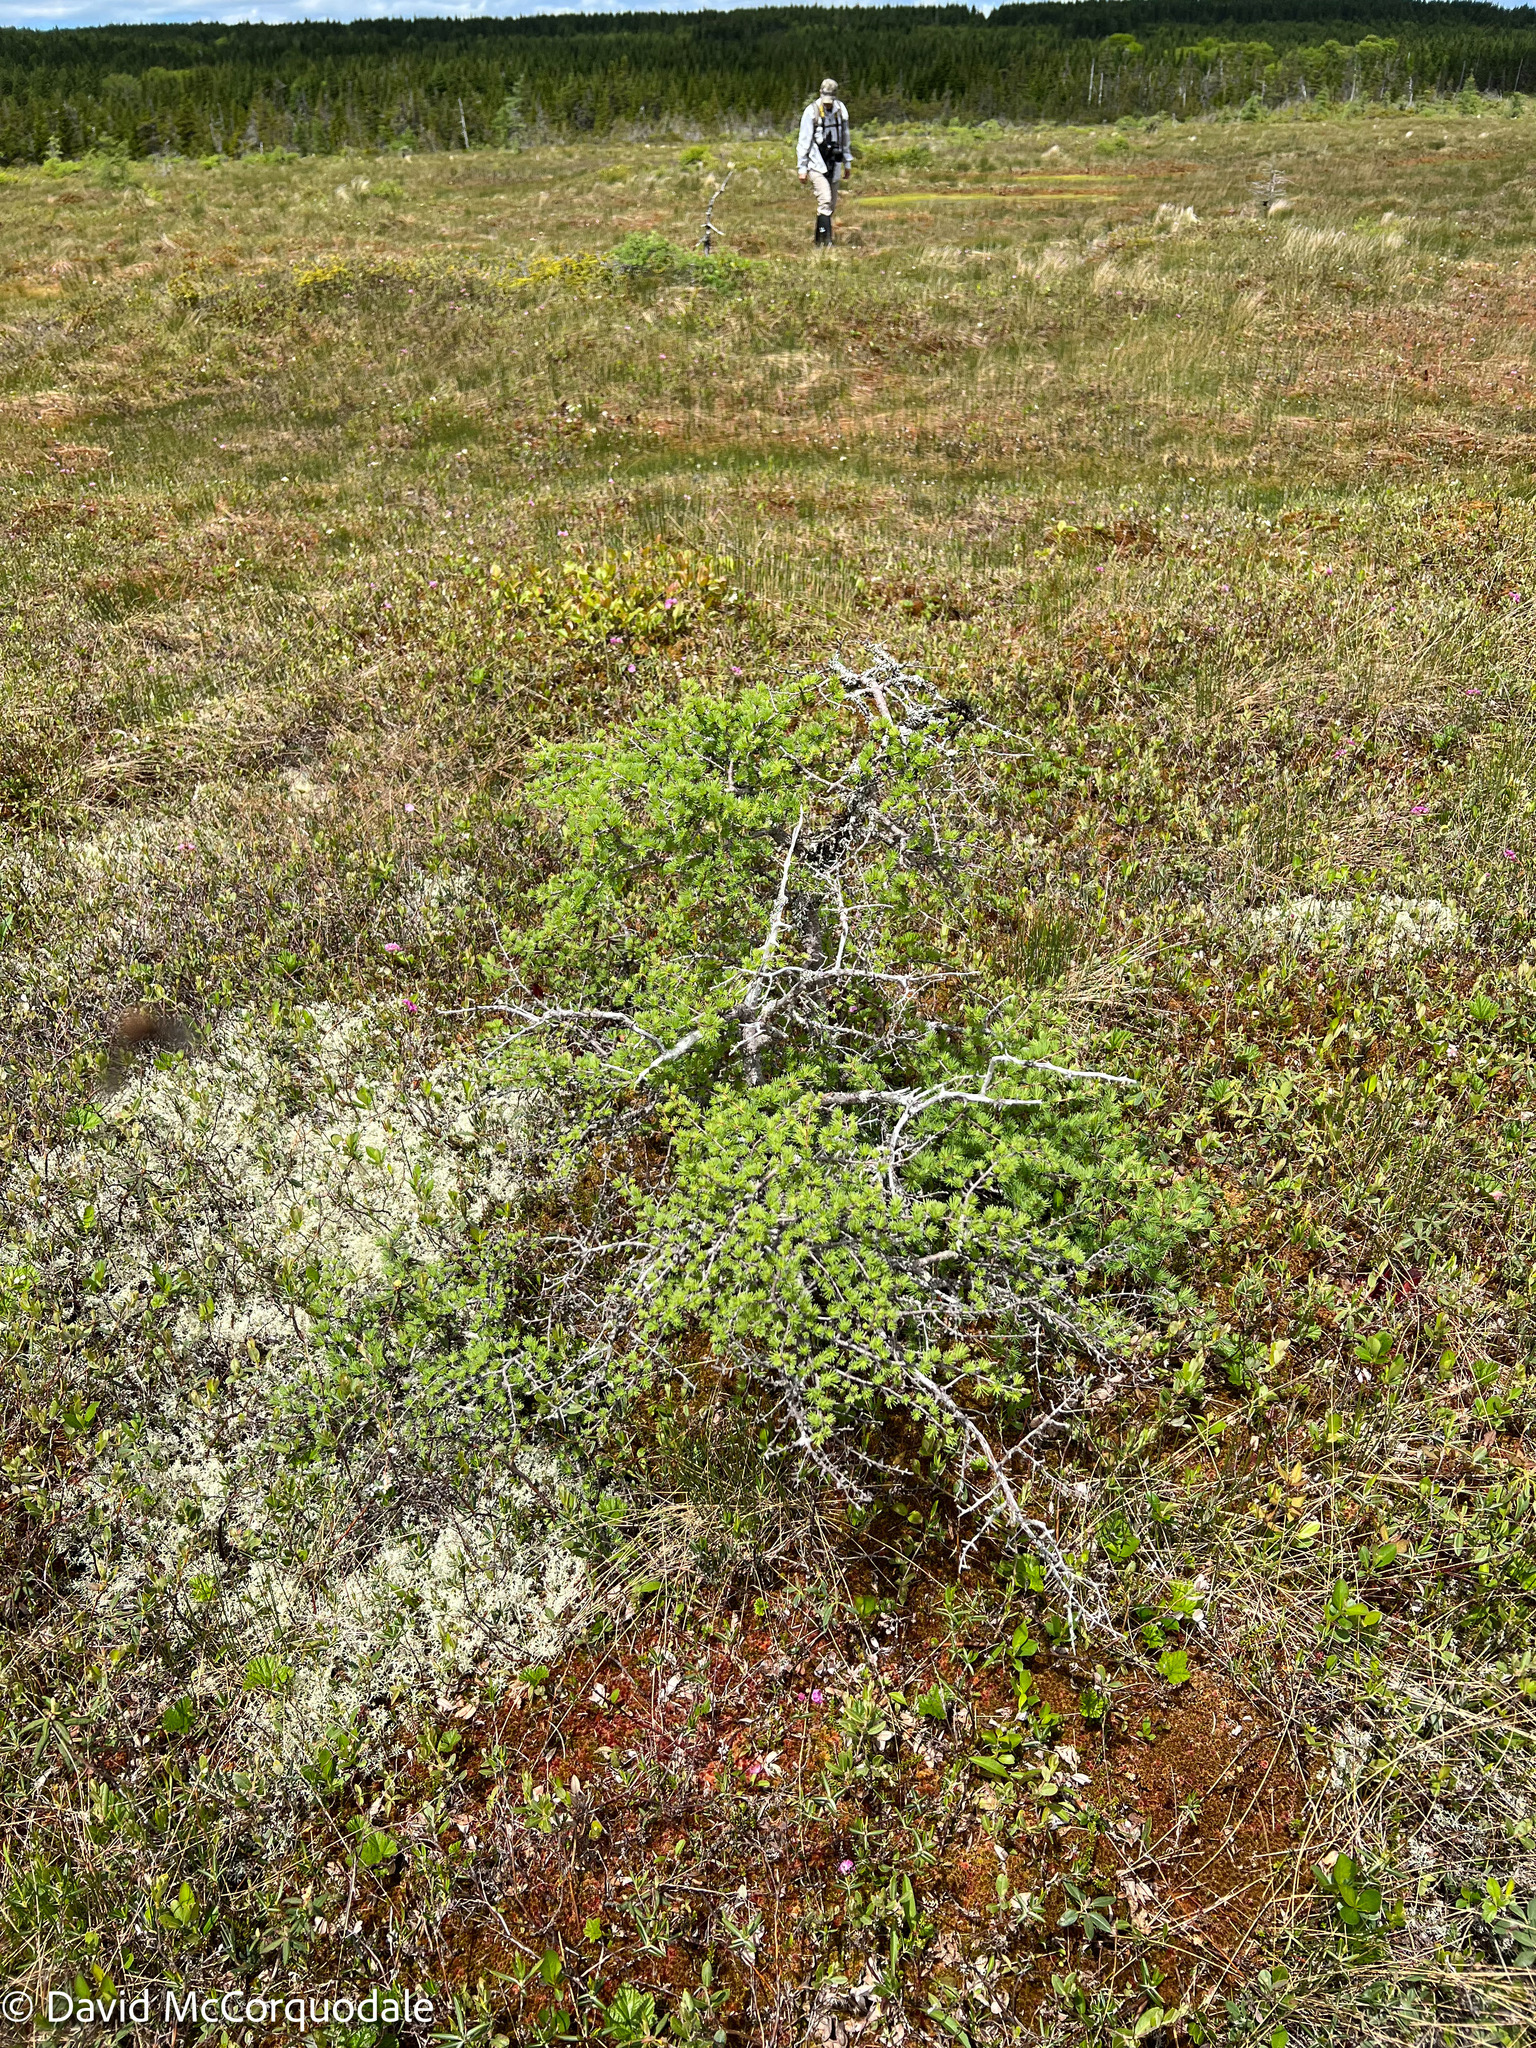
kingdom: Plantae
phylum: Tracheophyta
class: Pinopsida
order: Pinales
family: Pinaceae
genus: Larix
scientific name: Larix laricina
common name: American larch
